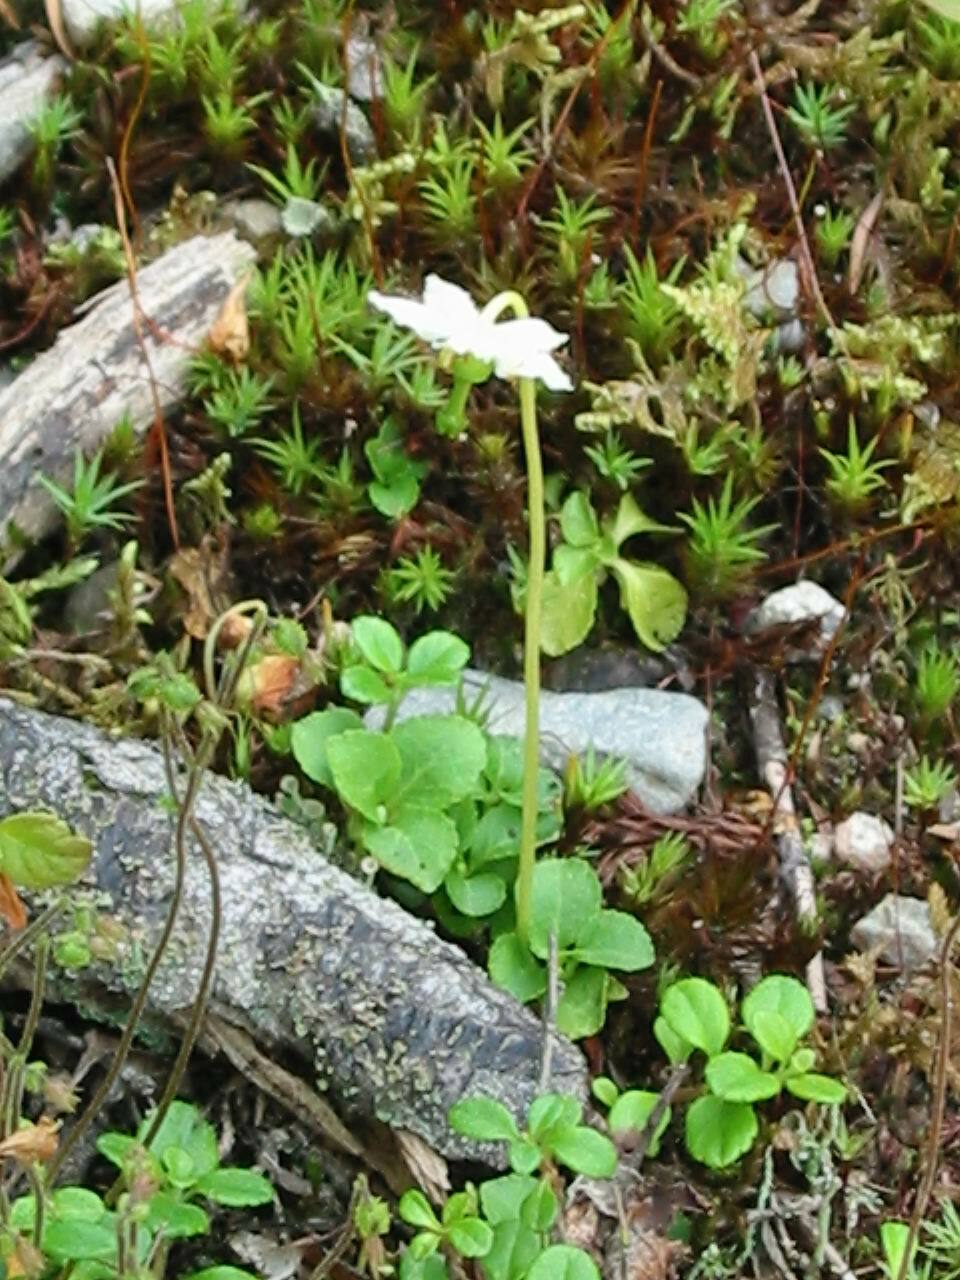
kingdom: Plantae
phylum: Tracheophyta
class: Magnoliopsida
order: Ericales
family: Ericaceae
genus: Moneses
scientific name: Moneses uniflora
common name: One-flowered wintergreen
